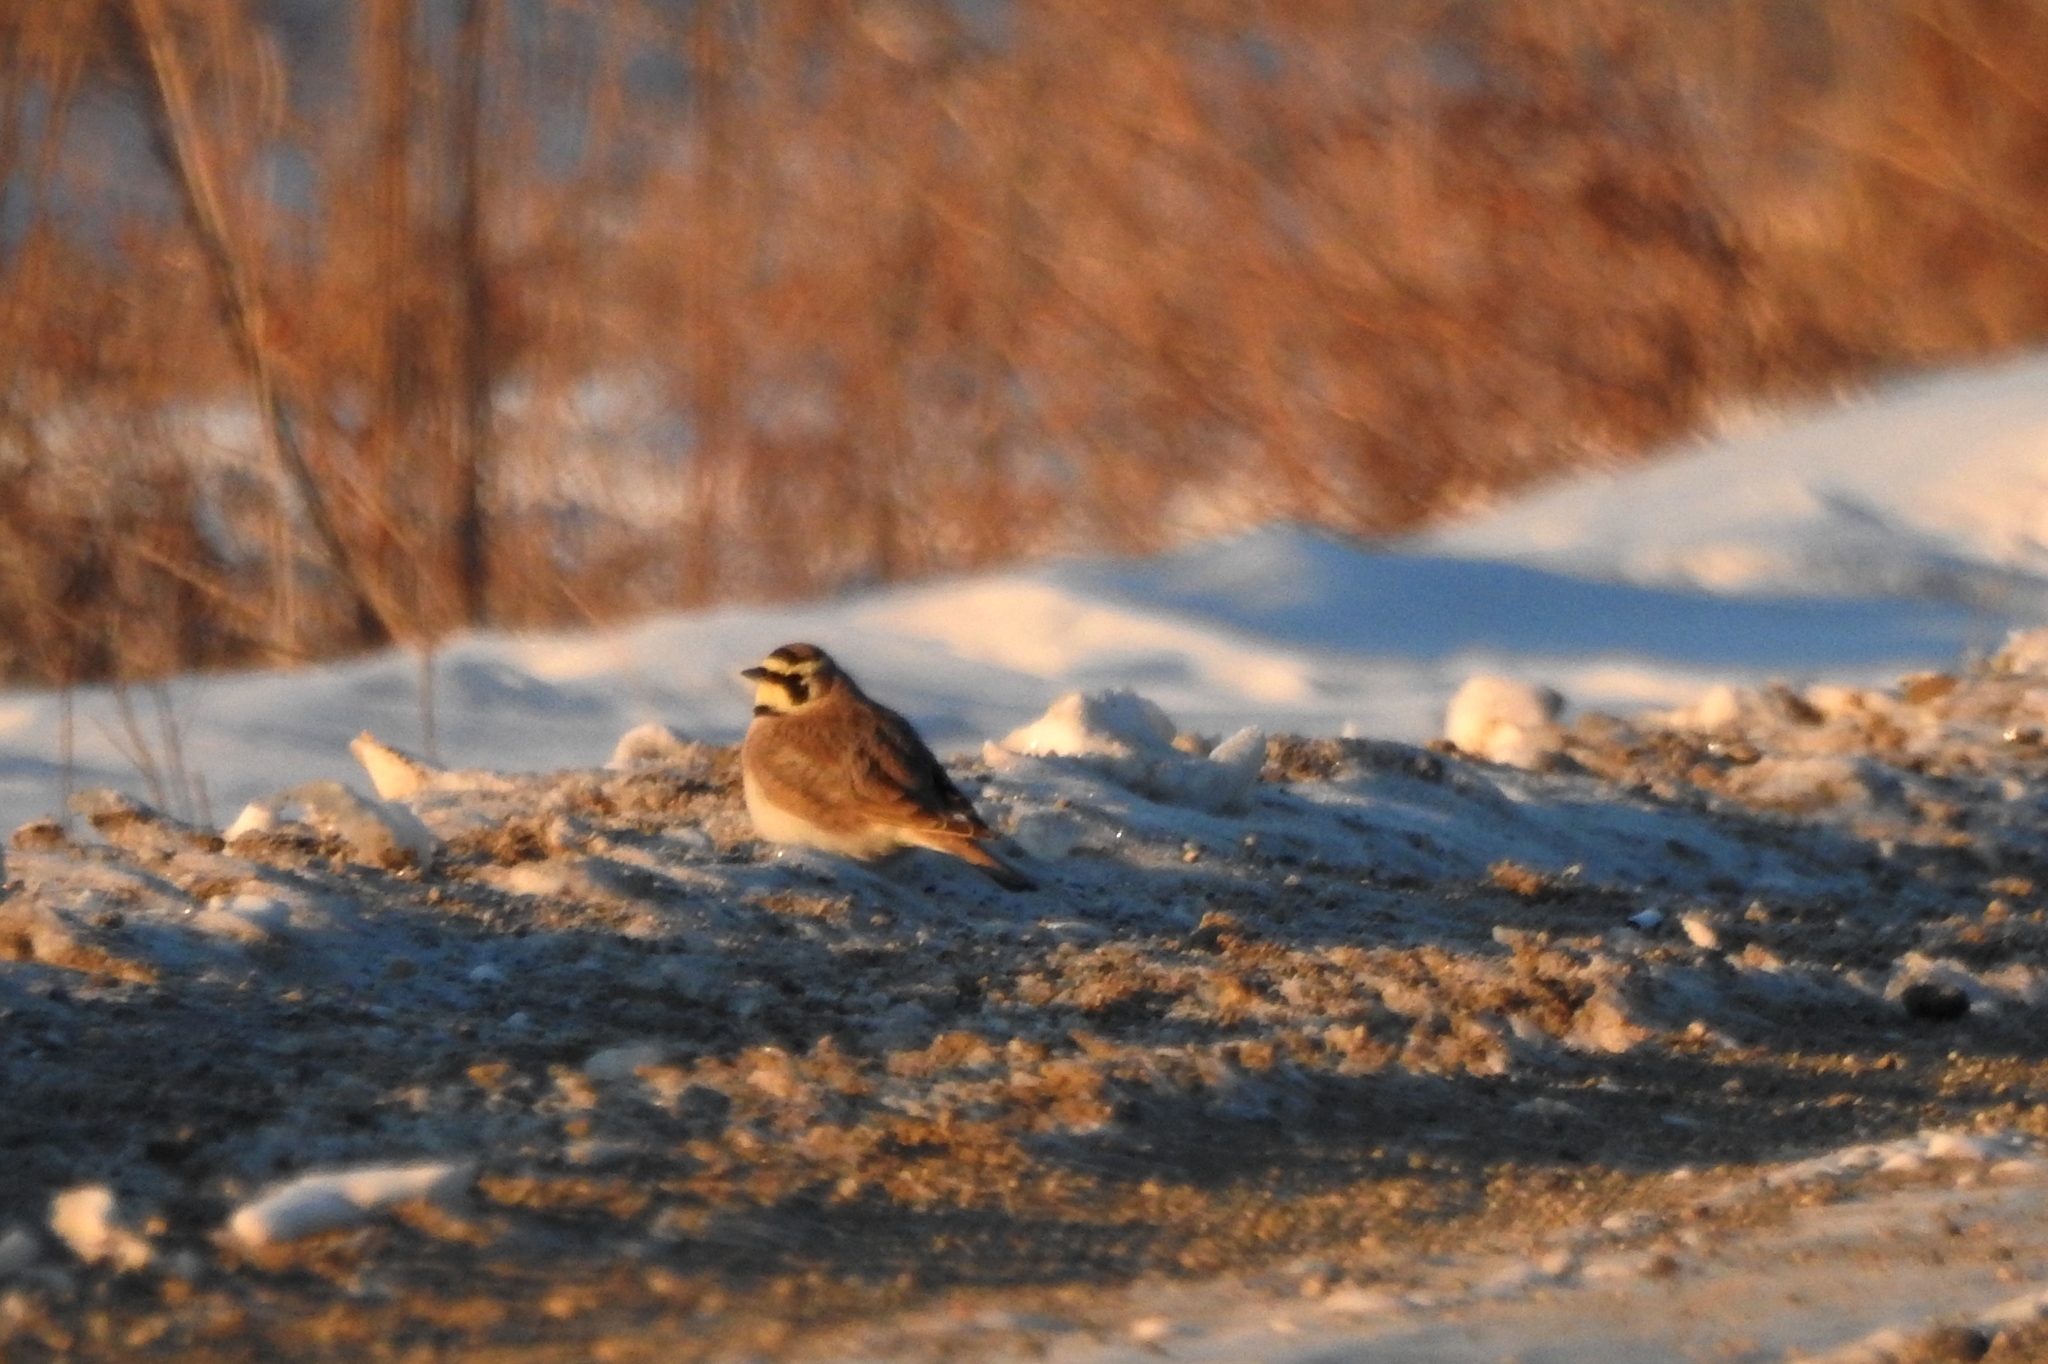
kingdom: Animalia
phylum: Chordata
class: Aves
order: Passeriformes
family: Alaudidae
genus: Eremophila
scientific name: Eremophila alpestris
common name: Horned lark
